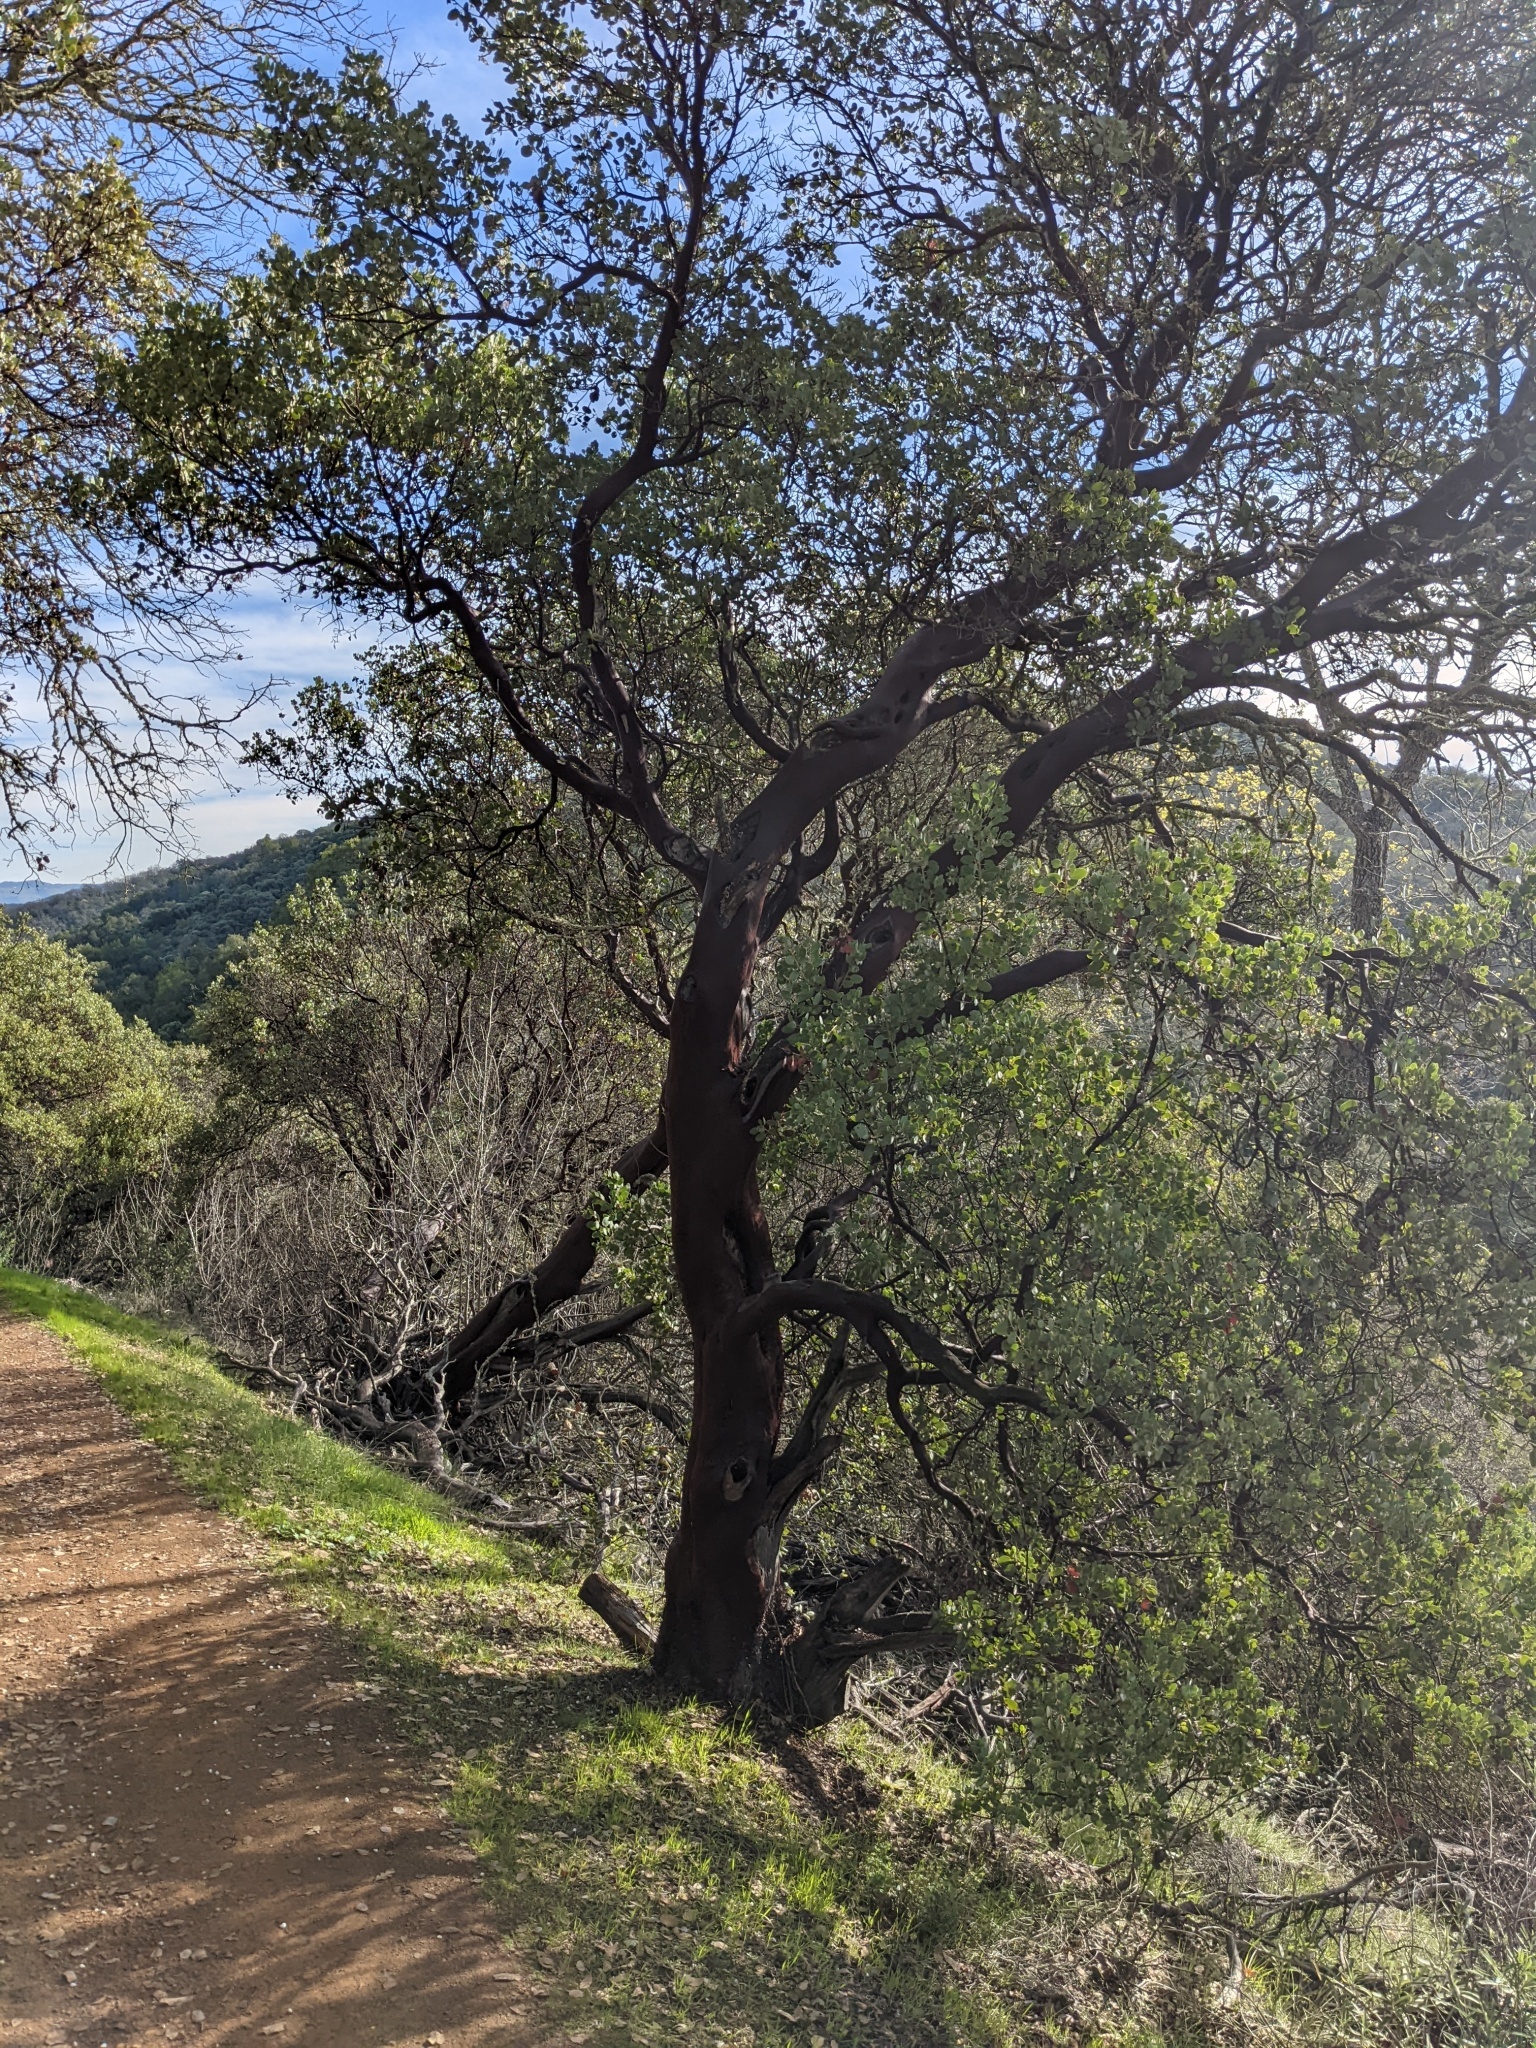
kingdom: Plantae
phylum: Tracheophyta
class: Magnoliopsida
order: Ericales
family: Ericaceae
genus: Arctostaphylos
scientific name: Arctostaphylos glauca
